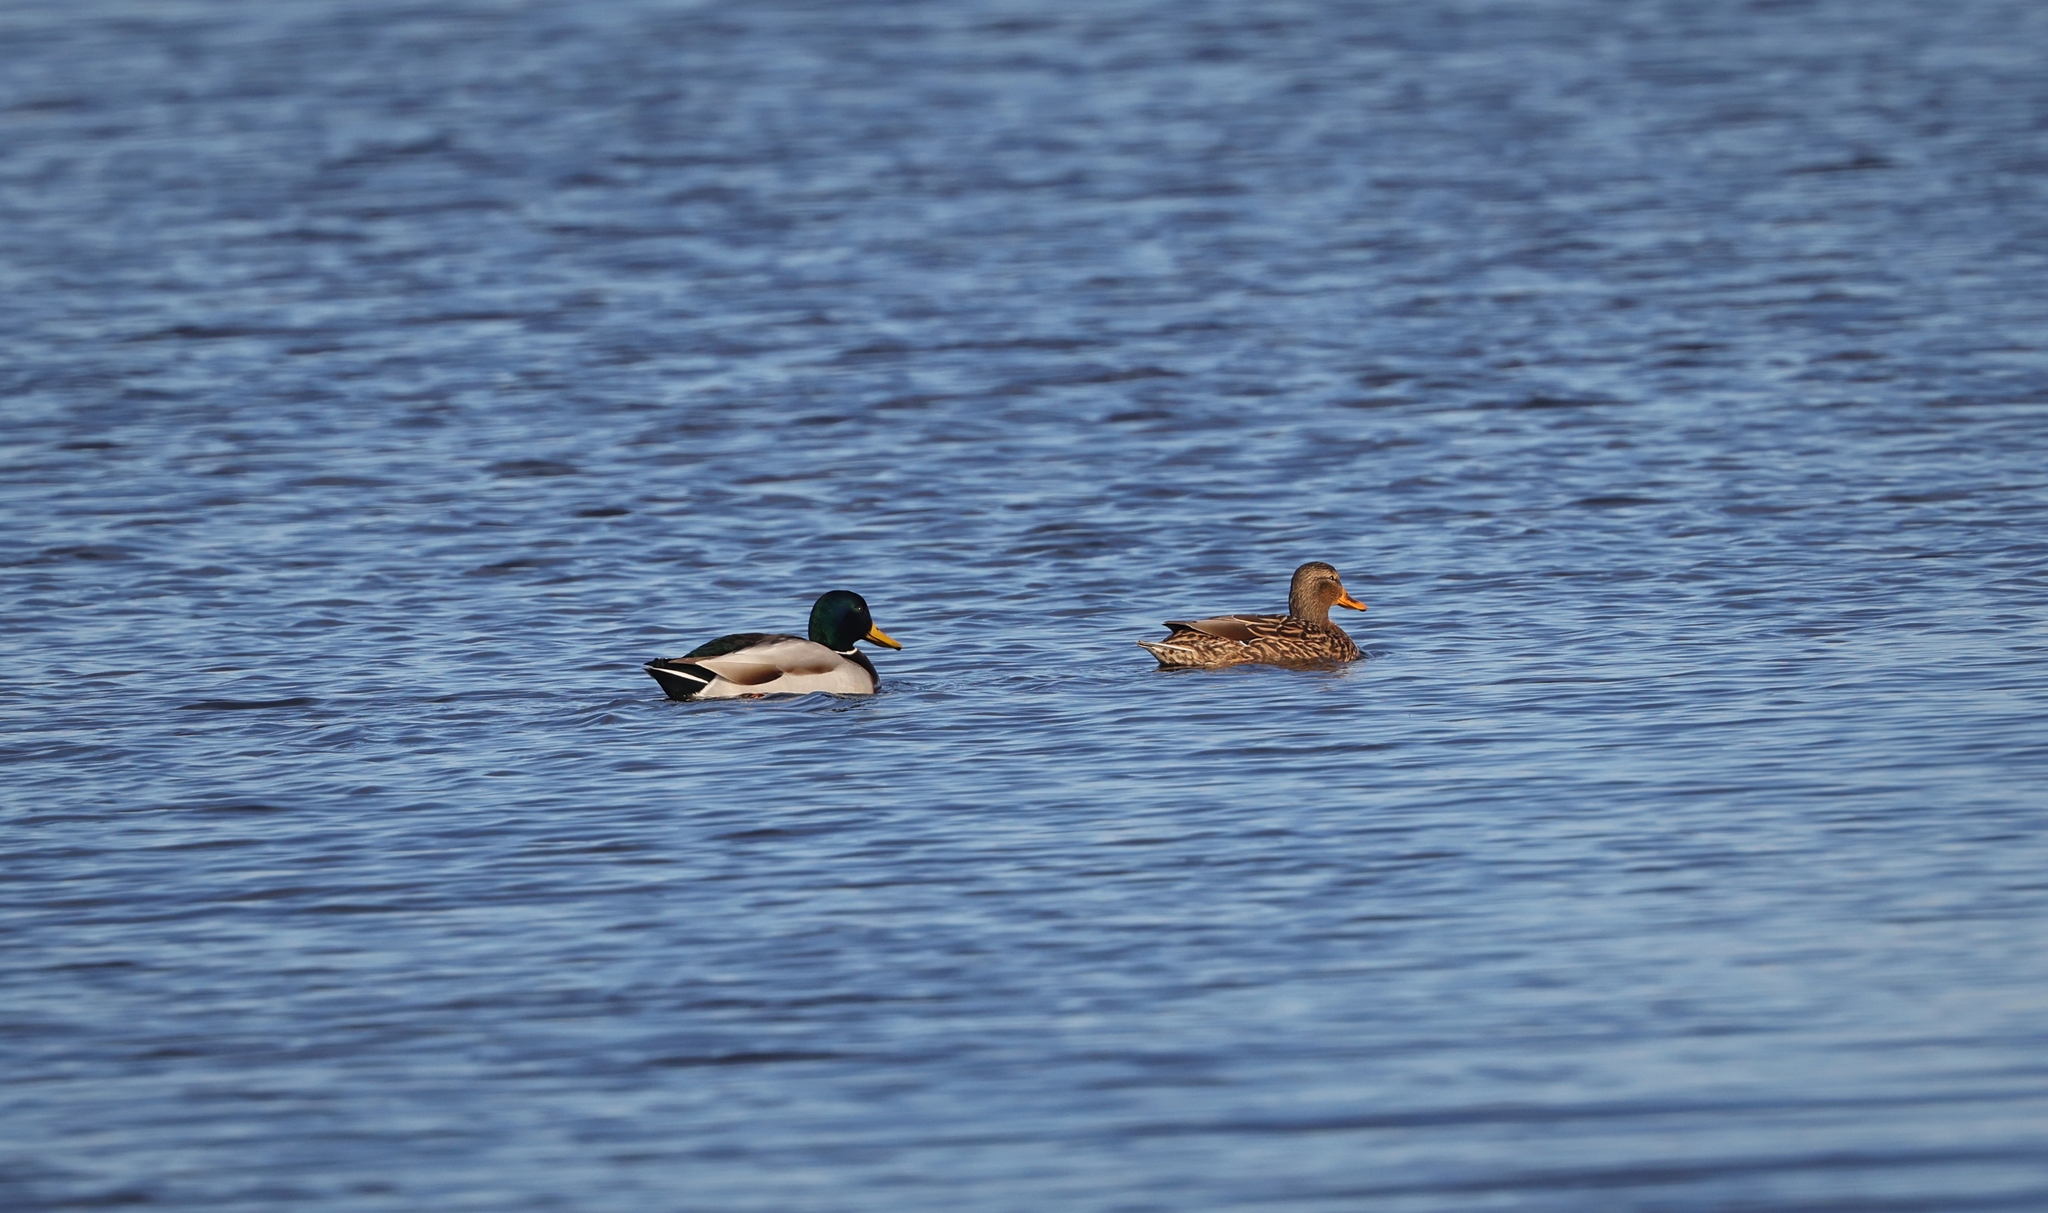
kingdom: Animalia
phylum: Chordata
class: Aves
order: Anseriformes
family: Anatidae
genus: Anas
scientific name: Anas platyrhynchos
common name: Mallard
